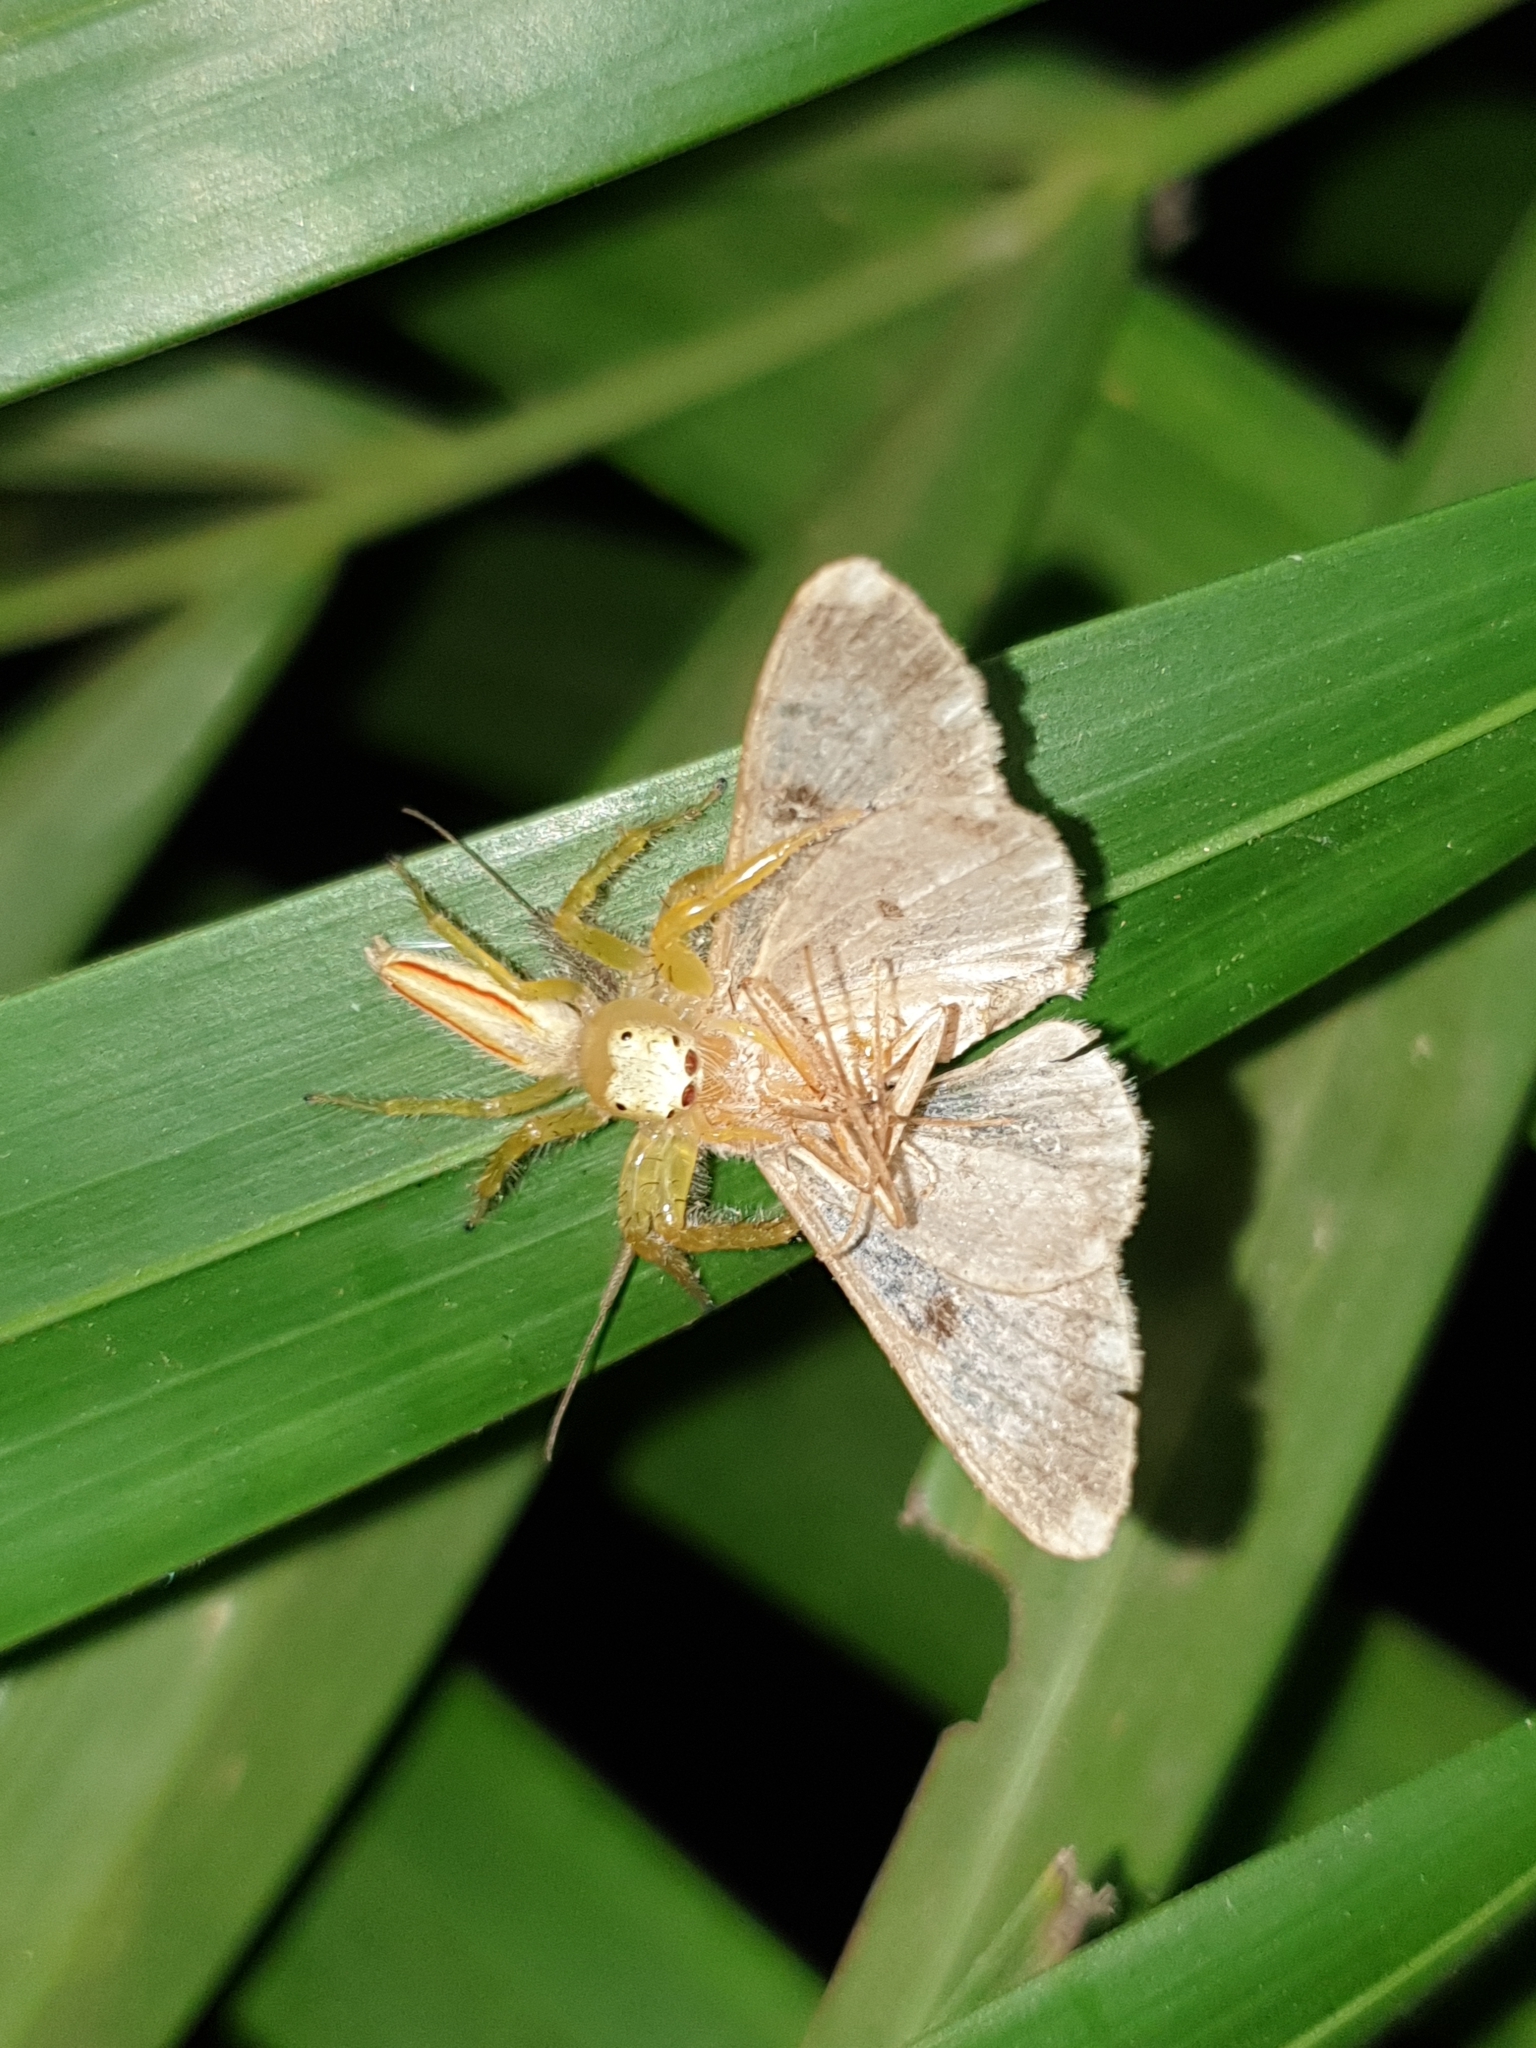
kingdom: Animalia
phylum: Arthropoda
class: Arachnida
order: Araneae
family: Salticidae
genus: Telamonia
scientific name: Telamonia dimidiata
